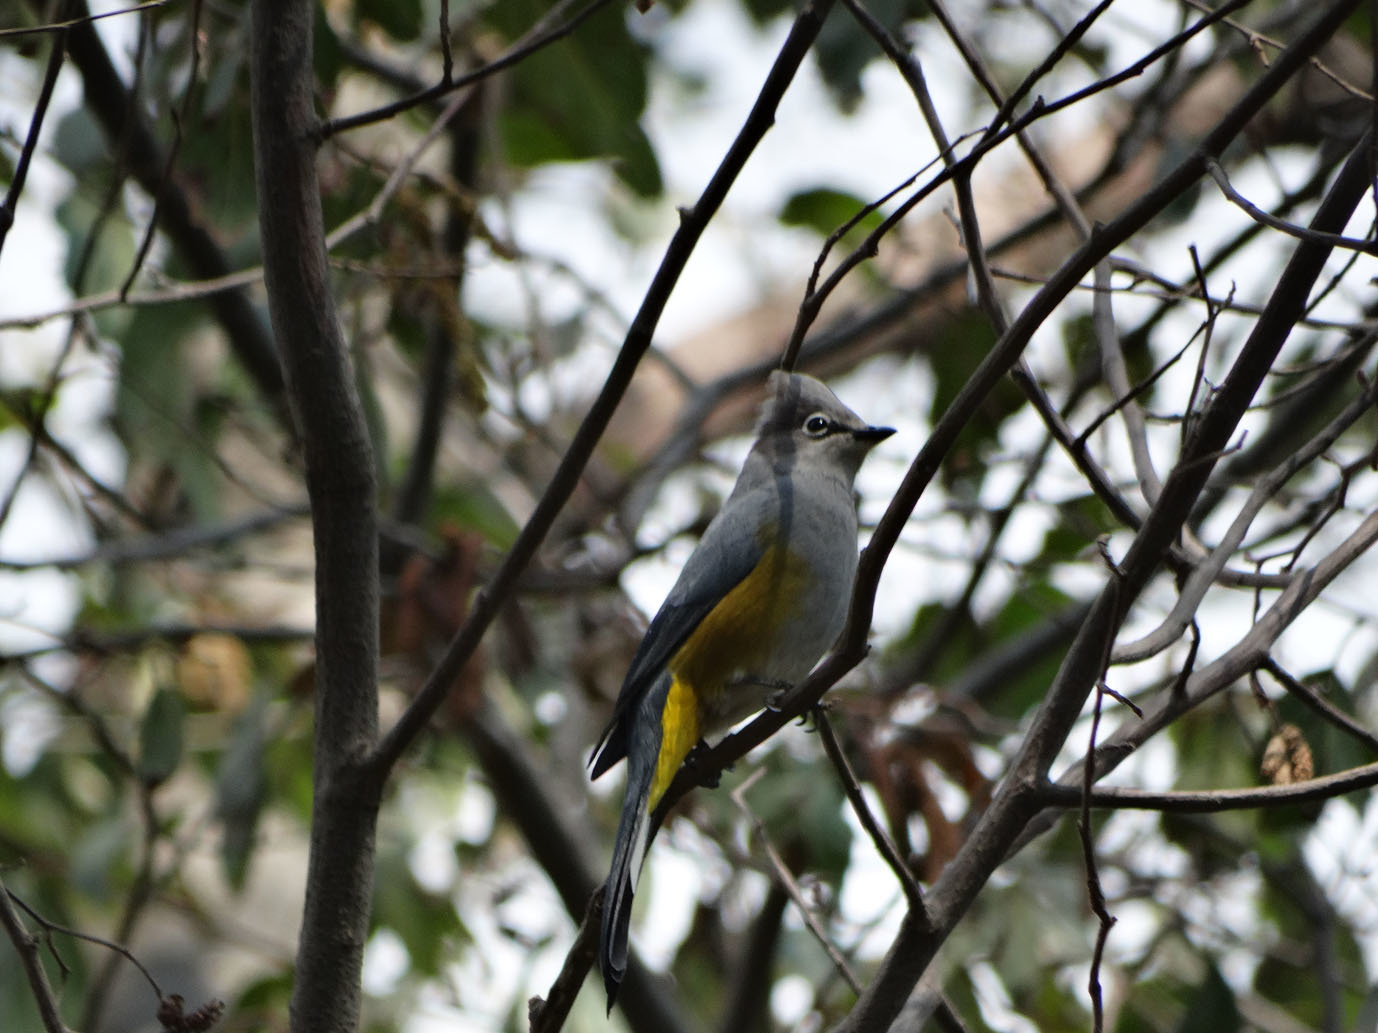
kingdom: Animalia
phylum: Chordata
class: Aves
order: Passeriformes
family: Ptilogonatidae
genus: Ptilogonys
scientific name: Ptilogonys cinereus
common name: Gray silky-flycatcher
